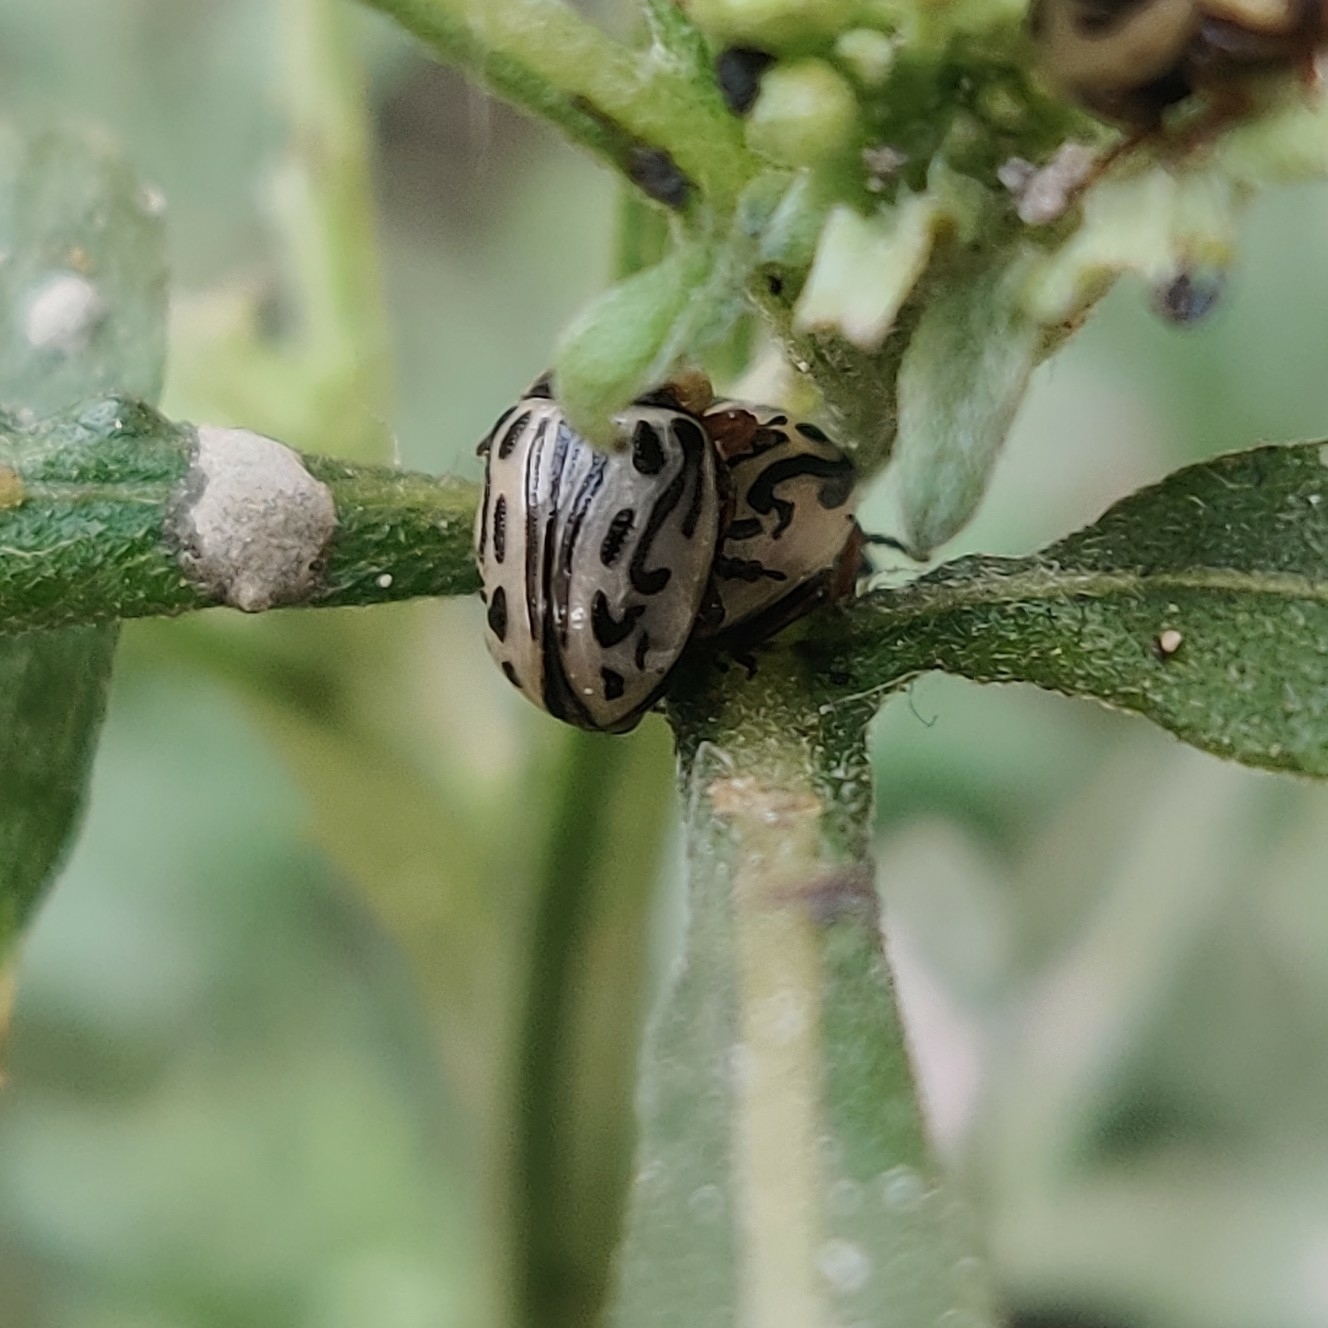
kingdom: Animalia
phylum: Arthropoda
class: Insecta
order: Coleoptera
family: Chrysomelidae
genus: Calligrapha
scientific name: Calligrapha
